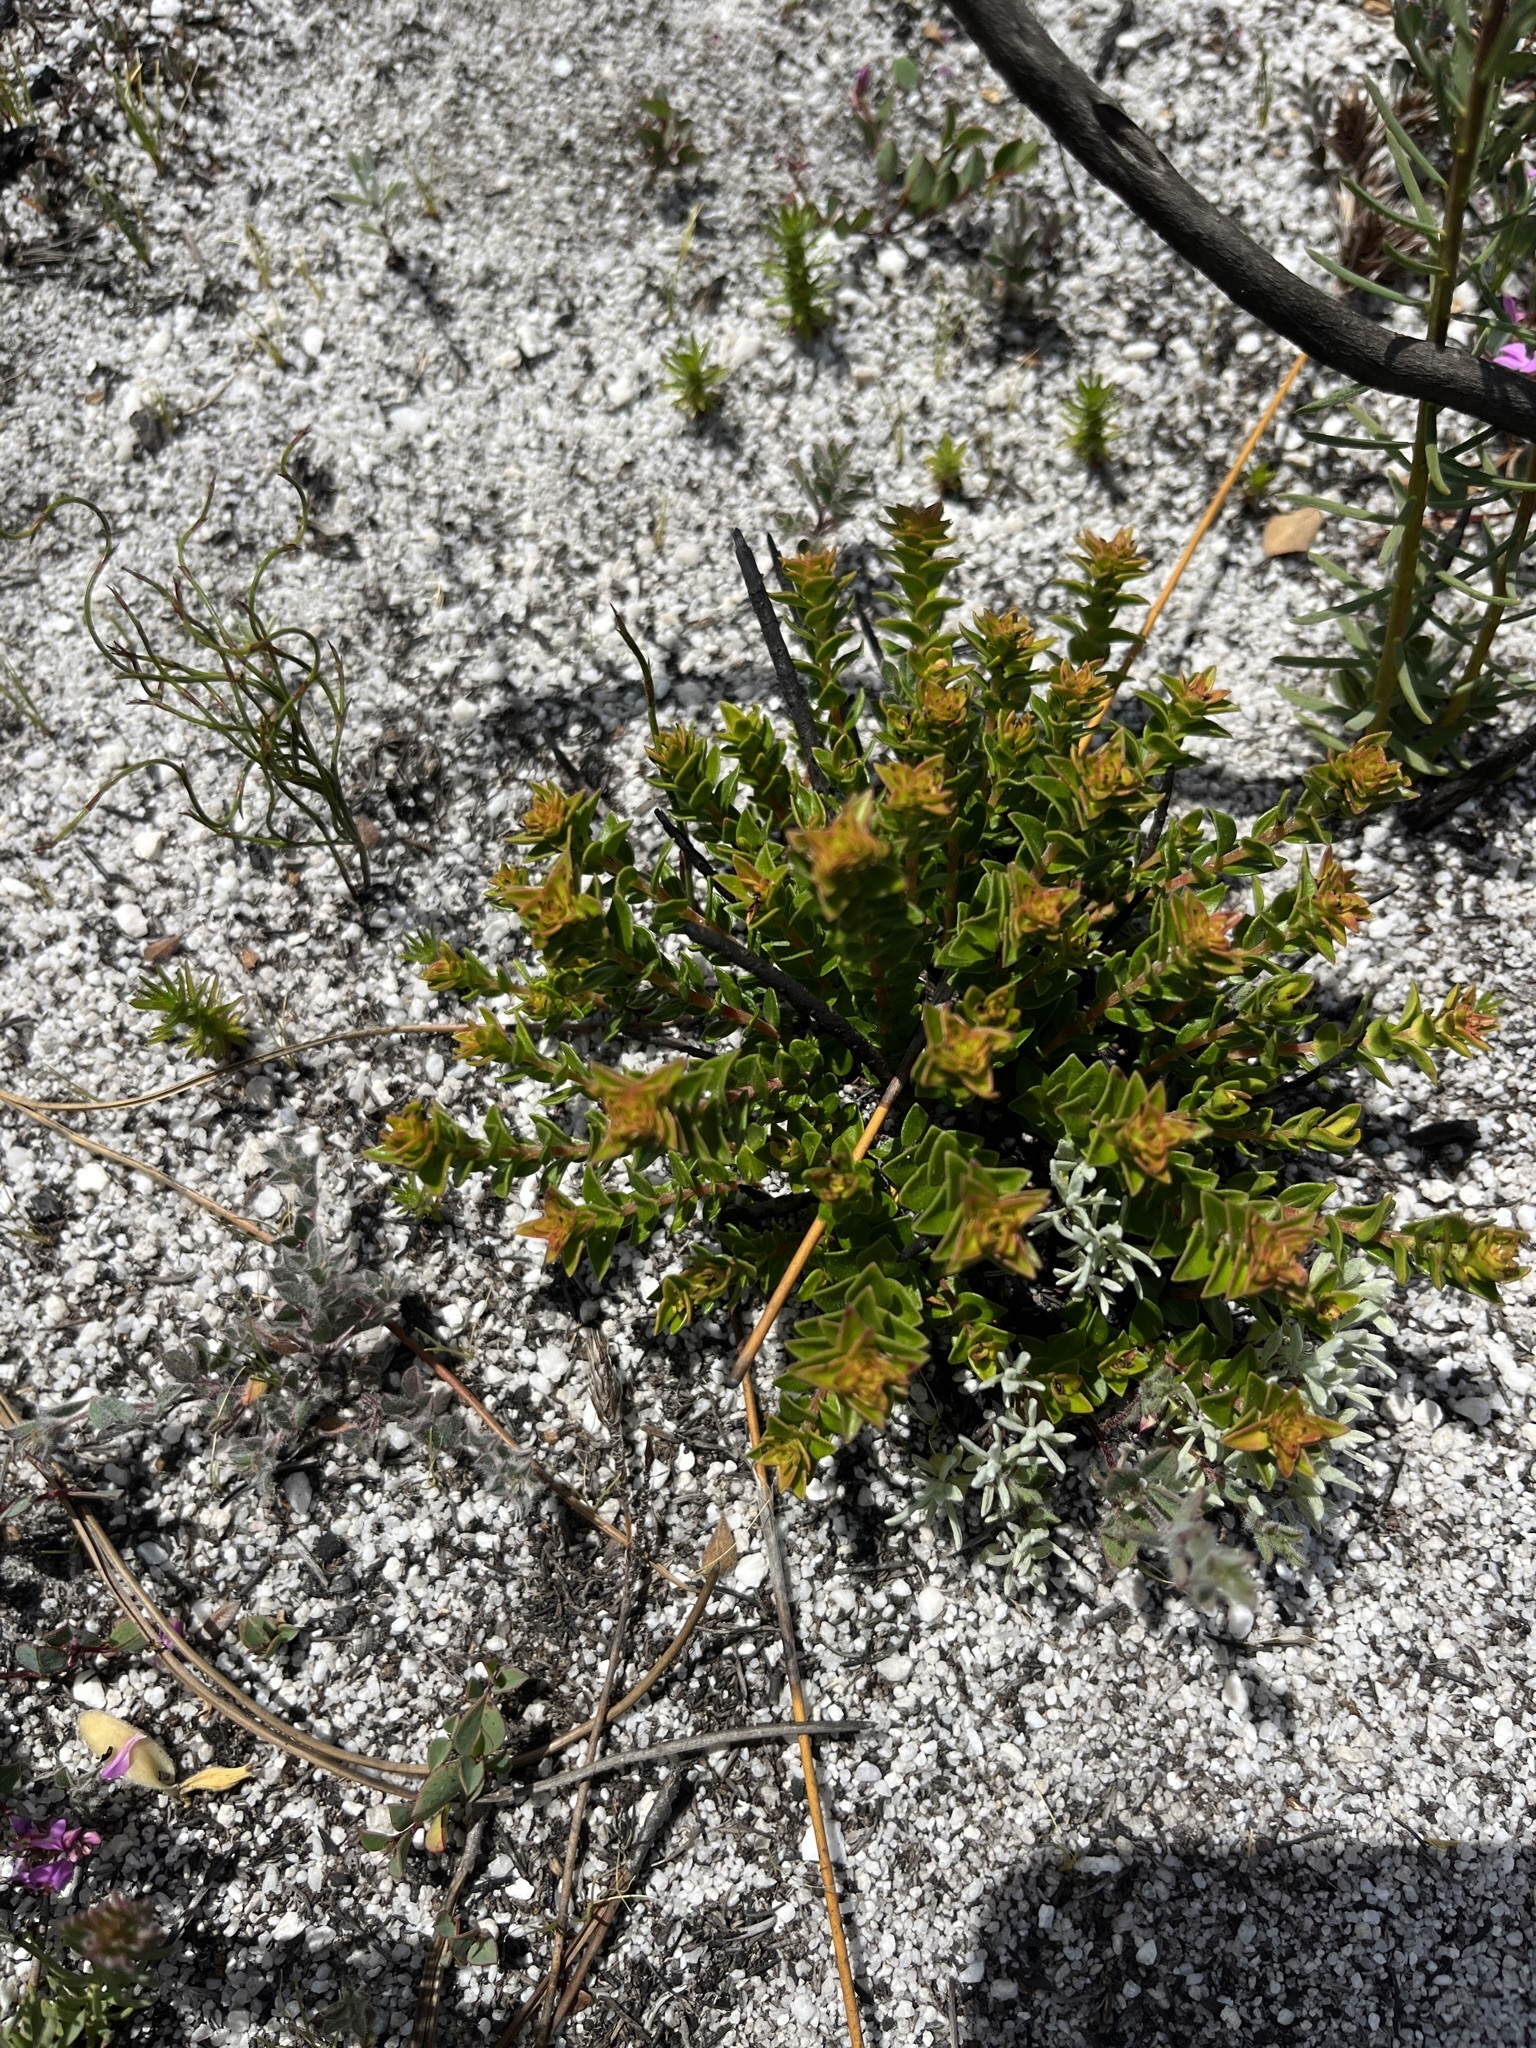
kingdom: Plantae
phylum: Tracheophyta
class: Magnoliopsida
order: Myrtales
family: Penaeaceae
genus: Penaea
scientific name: Penaea mucronata
